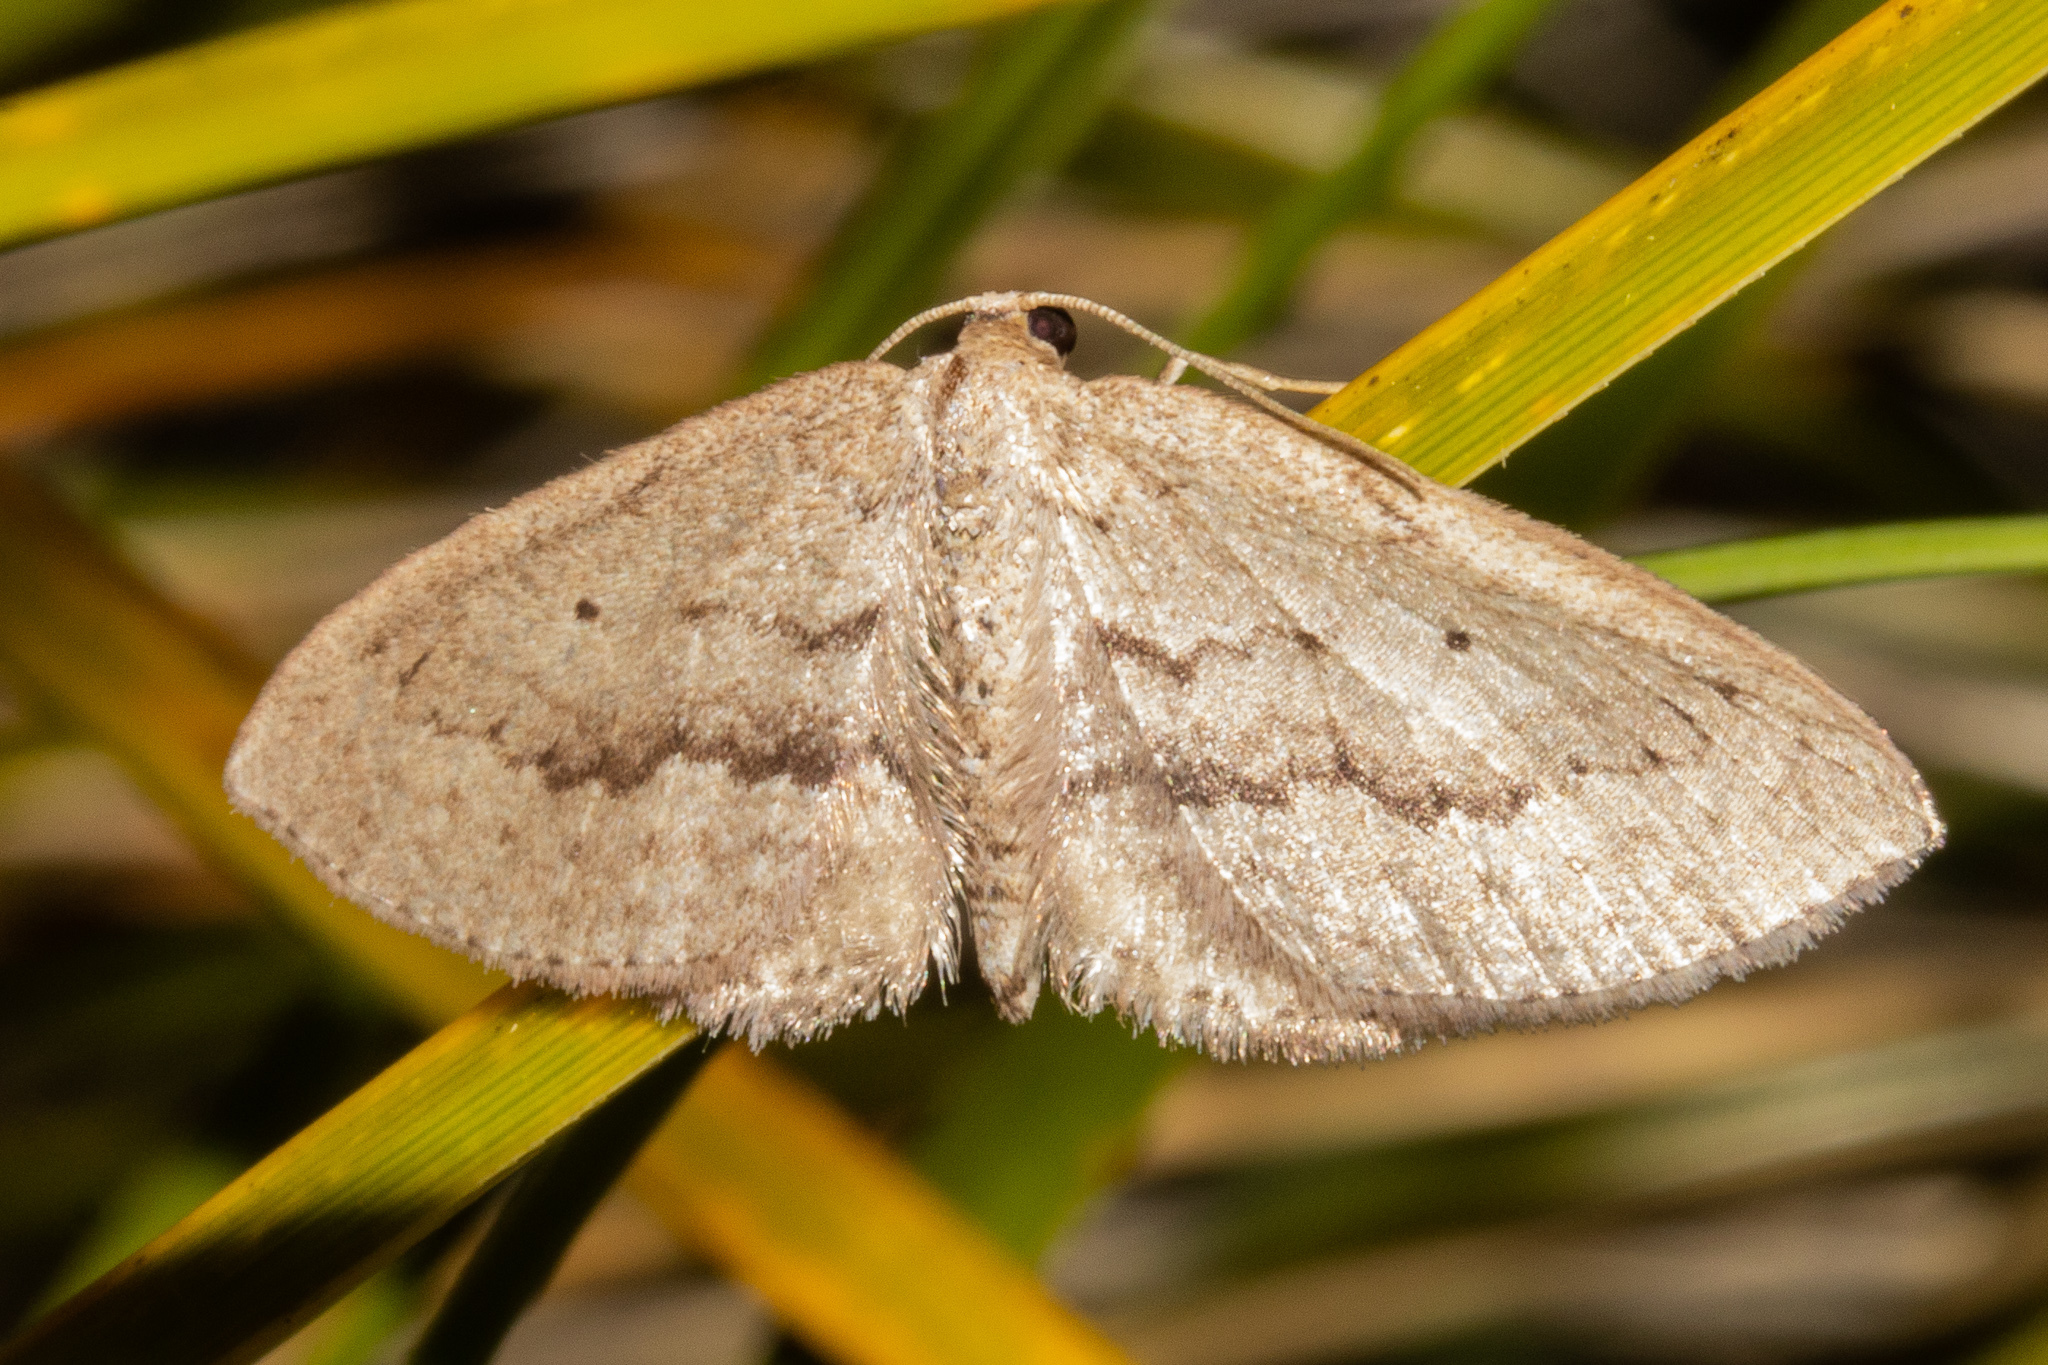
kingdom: Animalia
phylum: Arthropoda
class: Insecta
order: Lepidoptera
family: Geometridae
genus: Poecilasthena
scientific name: Poecilasthena schistaria
